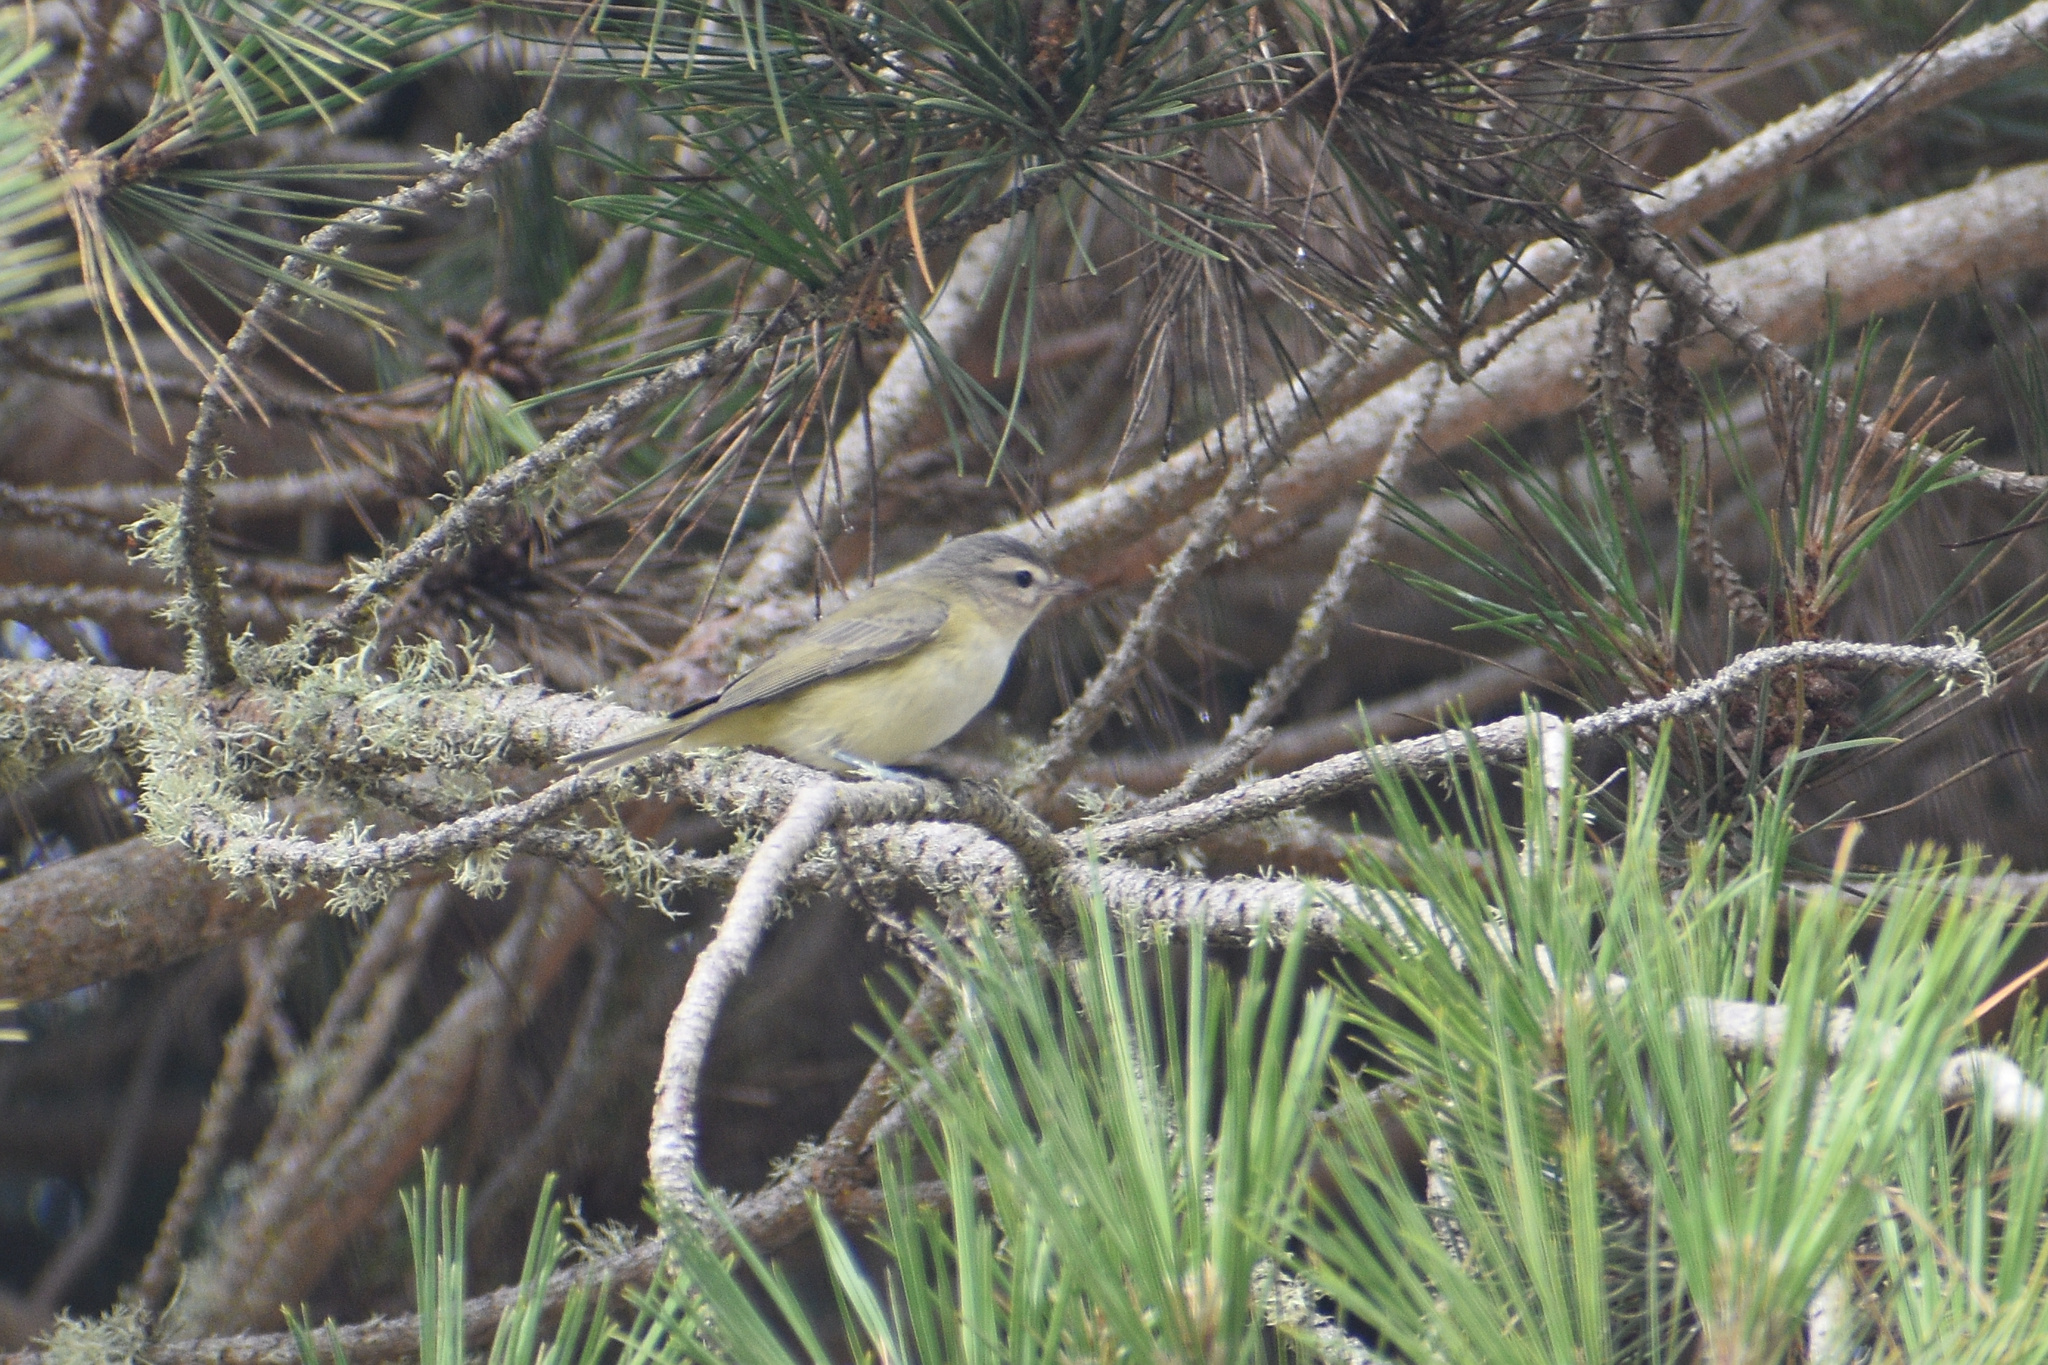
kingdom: Animalia
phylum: Chordata
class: Aves
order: Passeriformes
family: Vireonidae
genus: Vireo
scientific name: Vireo gilvus
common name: Warbling vireo
